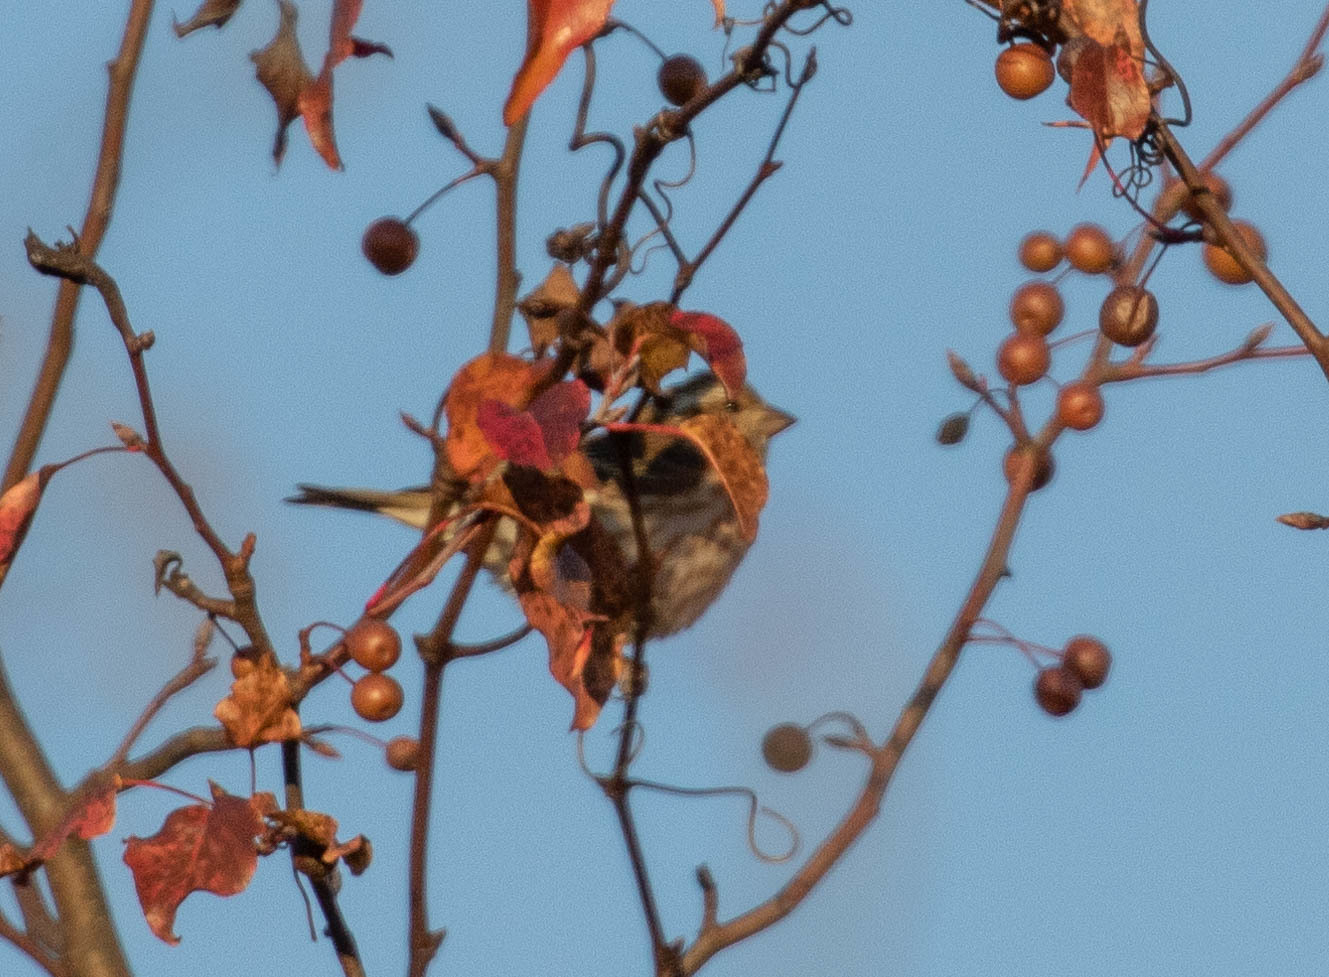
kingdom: Animalia
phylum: Chordata
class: Aves
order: Passeriformes
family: Fringillidae
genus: Haemorhous
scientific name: Haemorhous purpureus
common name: Purple finch
